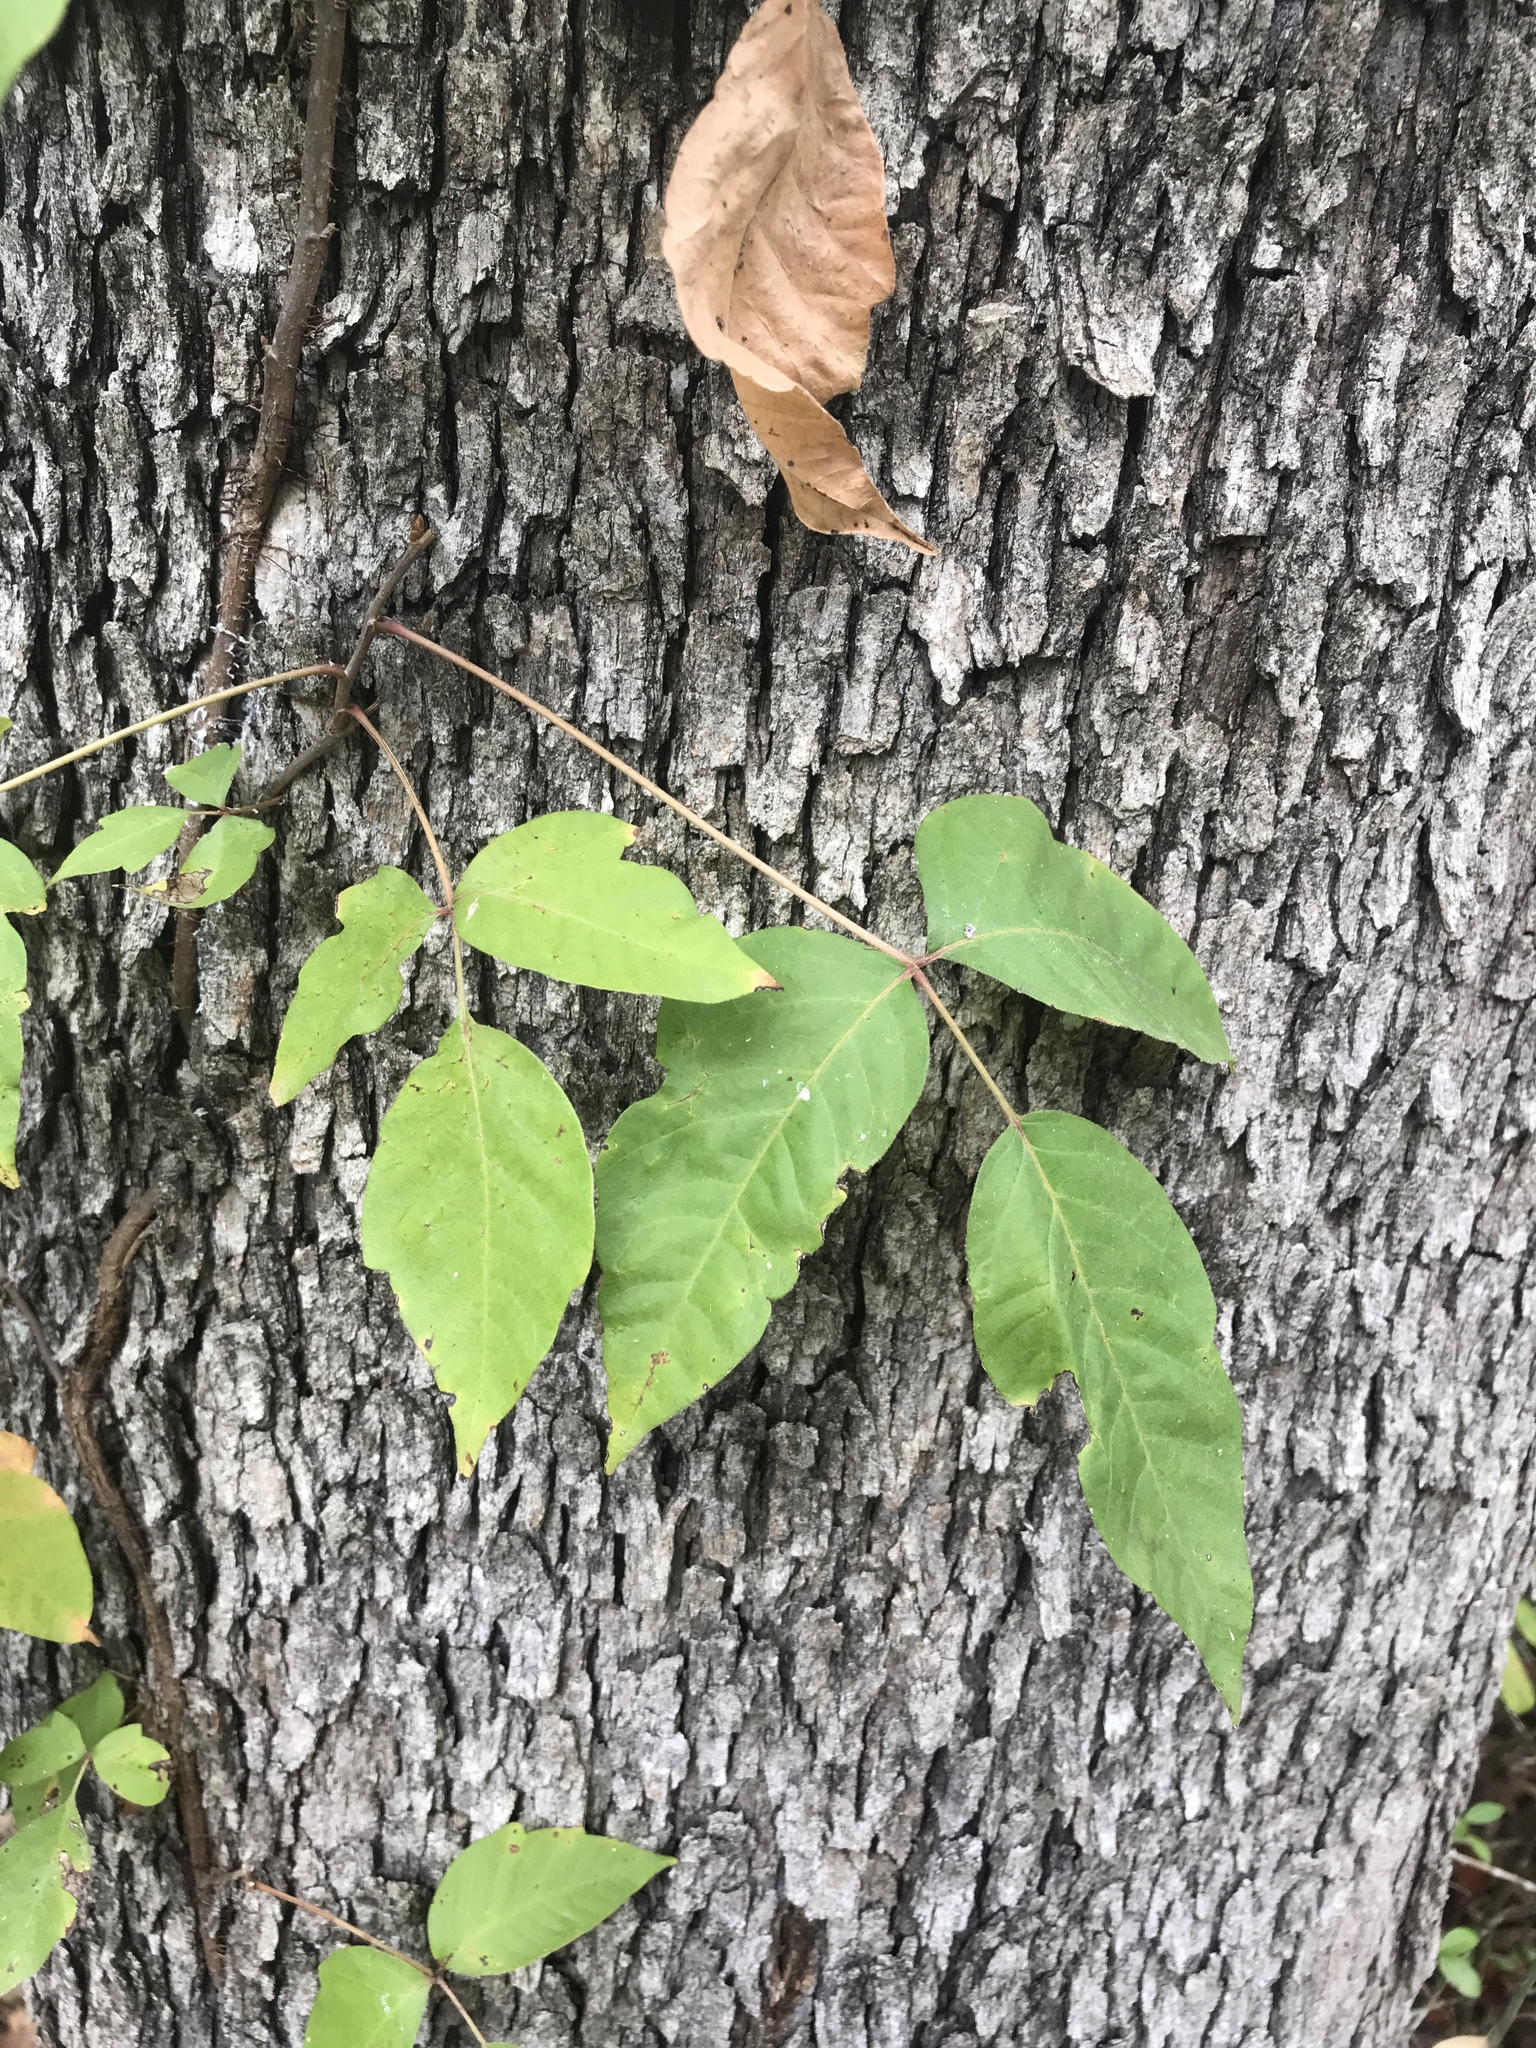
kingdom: Plantae
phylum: Tracheophyta
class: Magnoliopsida
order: Sapindales
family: Anacardiaceae
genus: Toxicodendron
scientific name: Toxicodendron radicans
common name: Poison ivy
